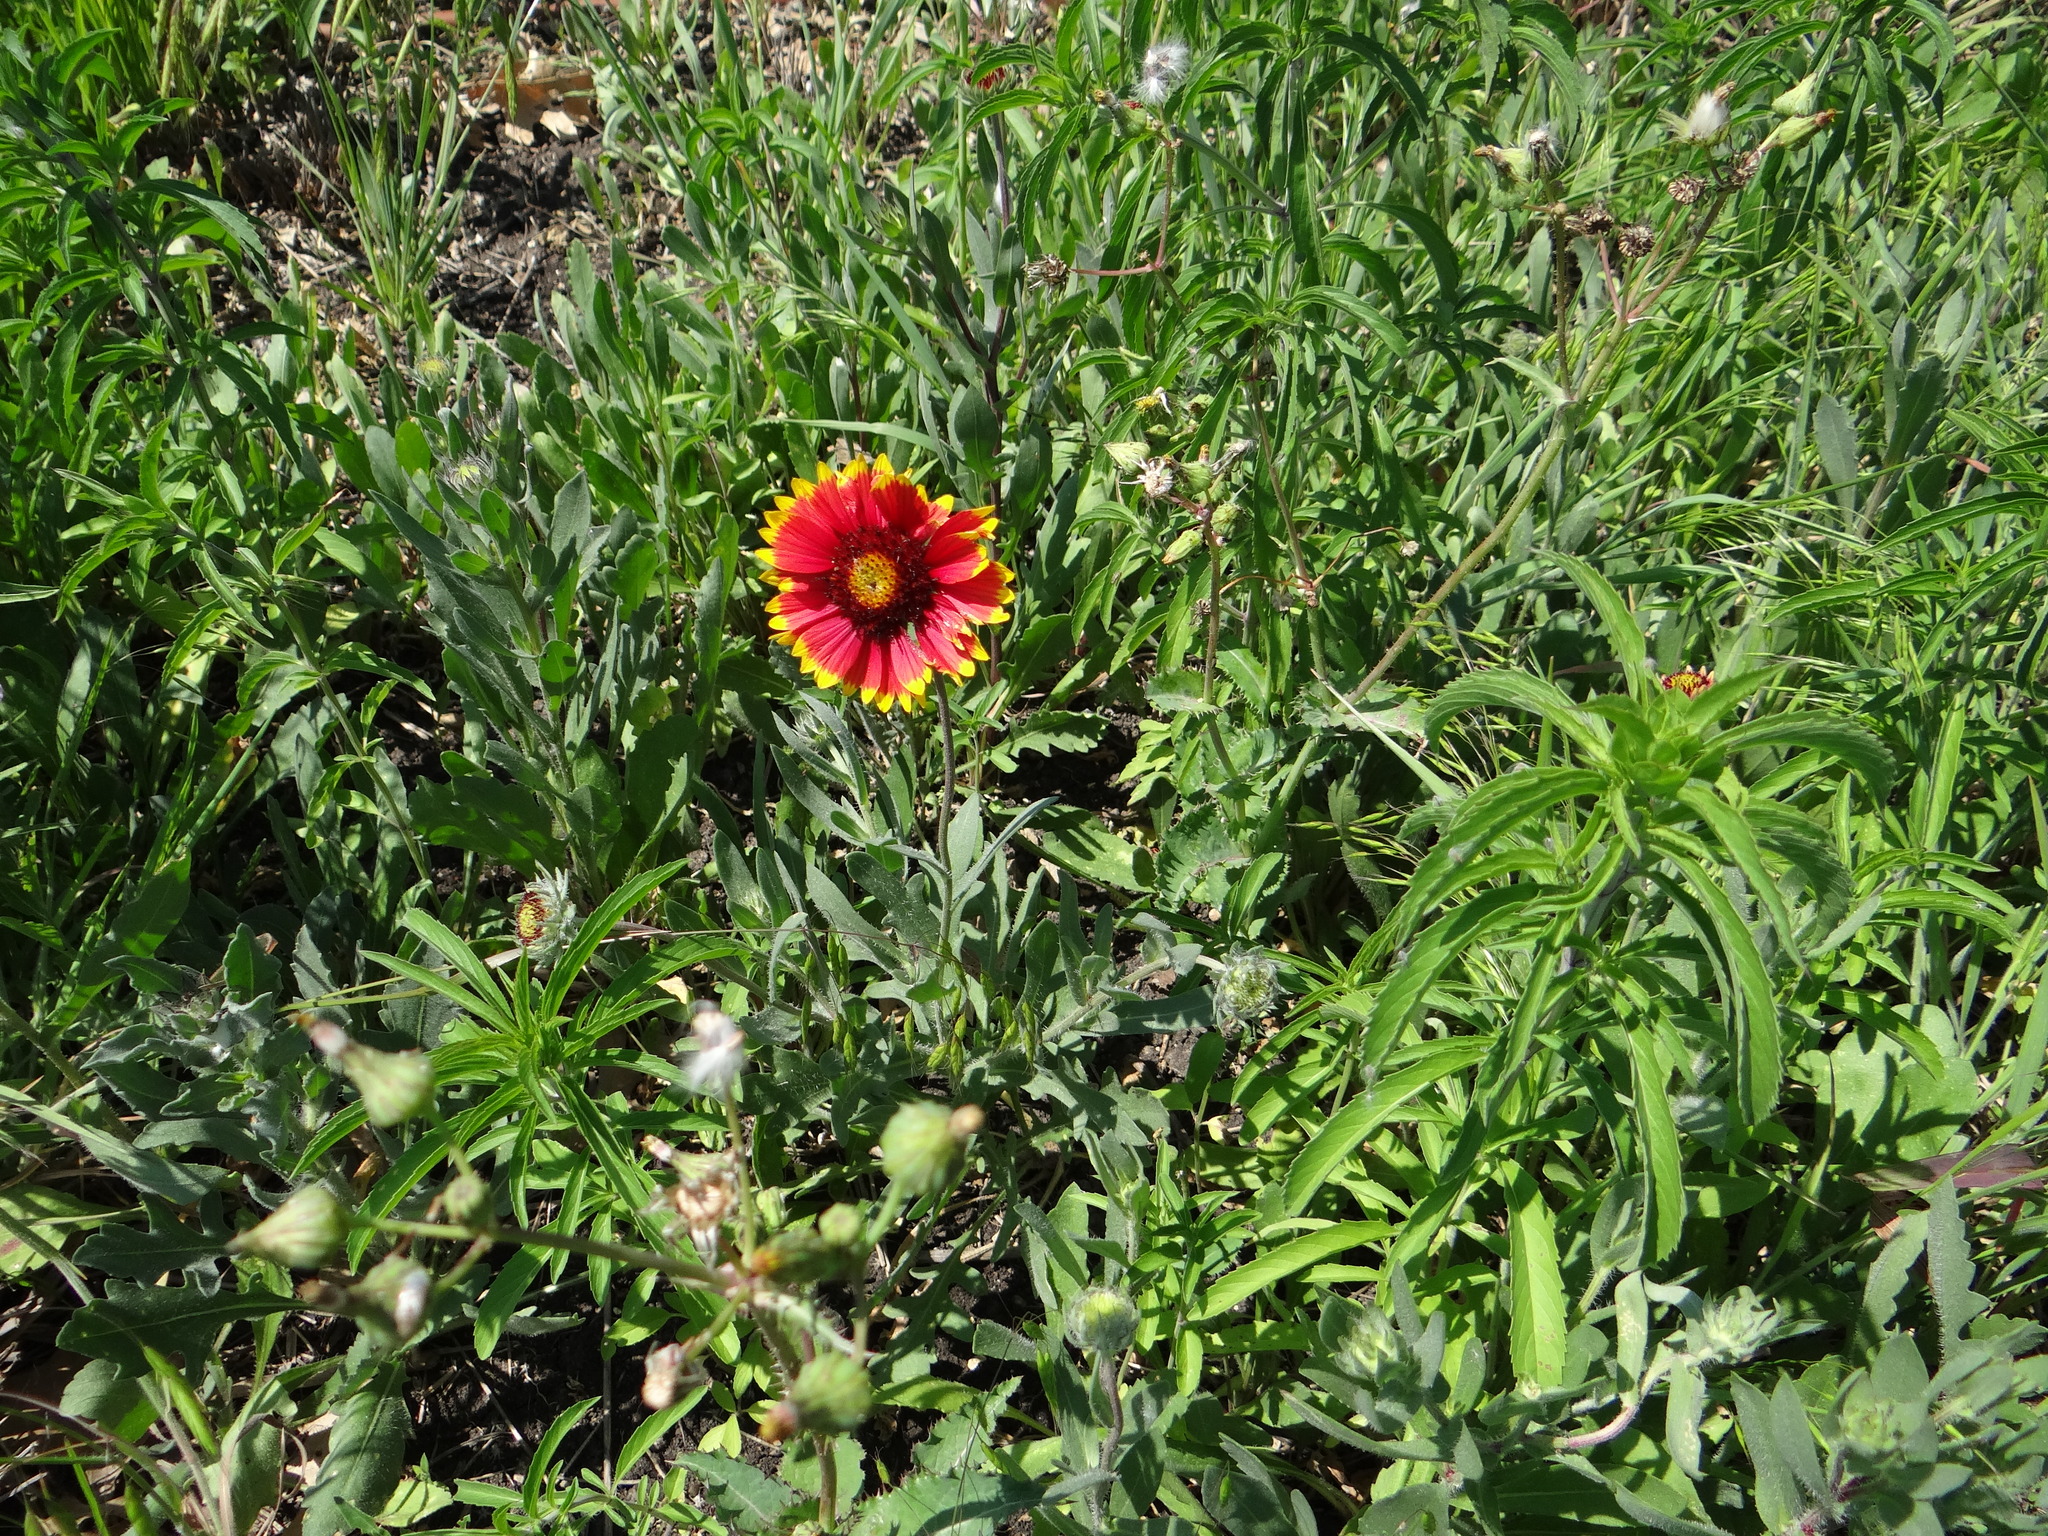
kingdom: Plantae
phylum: Tracheophyta
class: Magnoliopsida
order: Asterales
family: Asteraceae
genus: Gaillardia
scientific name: Gaillardia pulchella
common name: Firewheel
